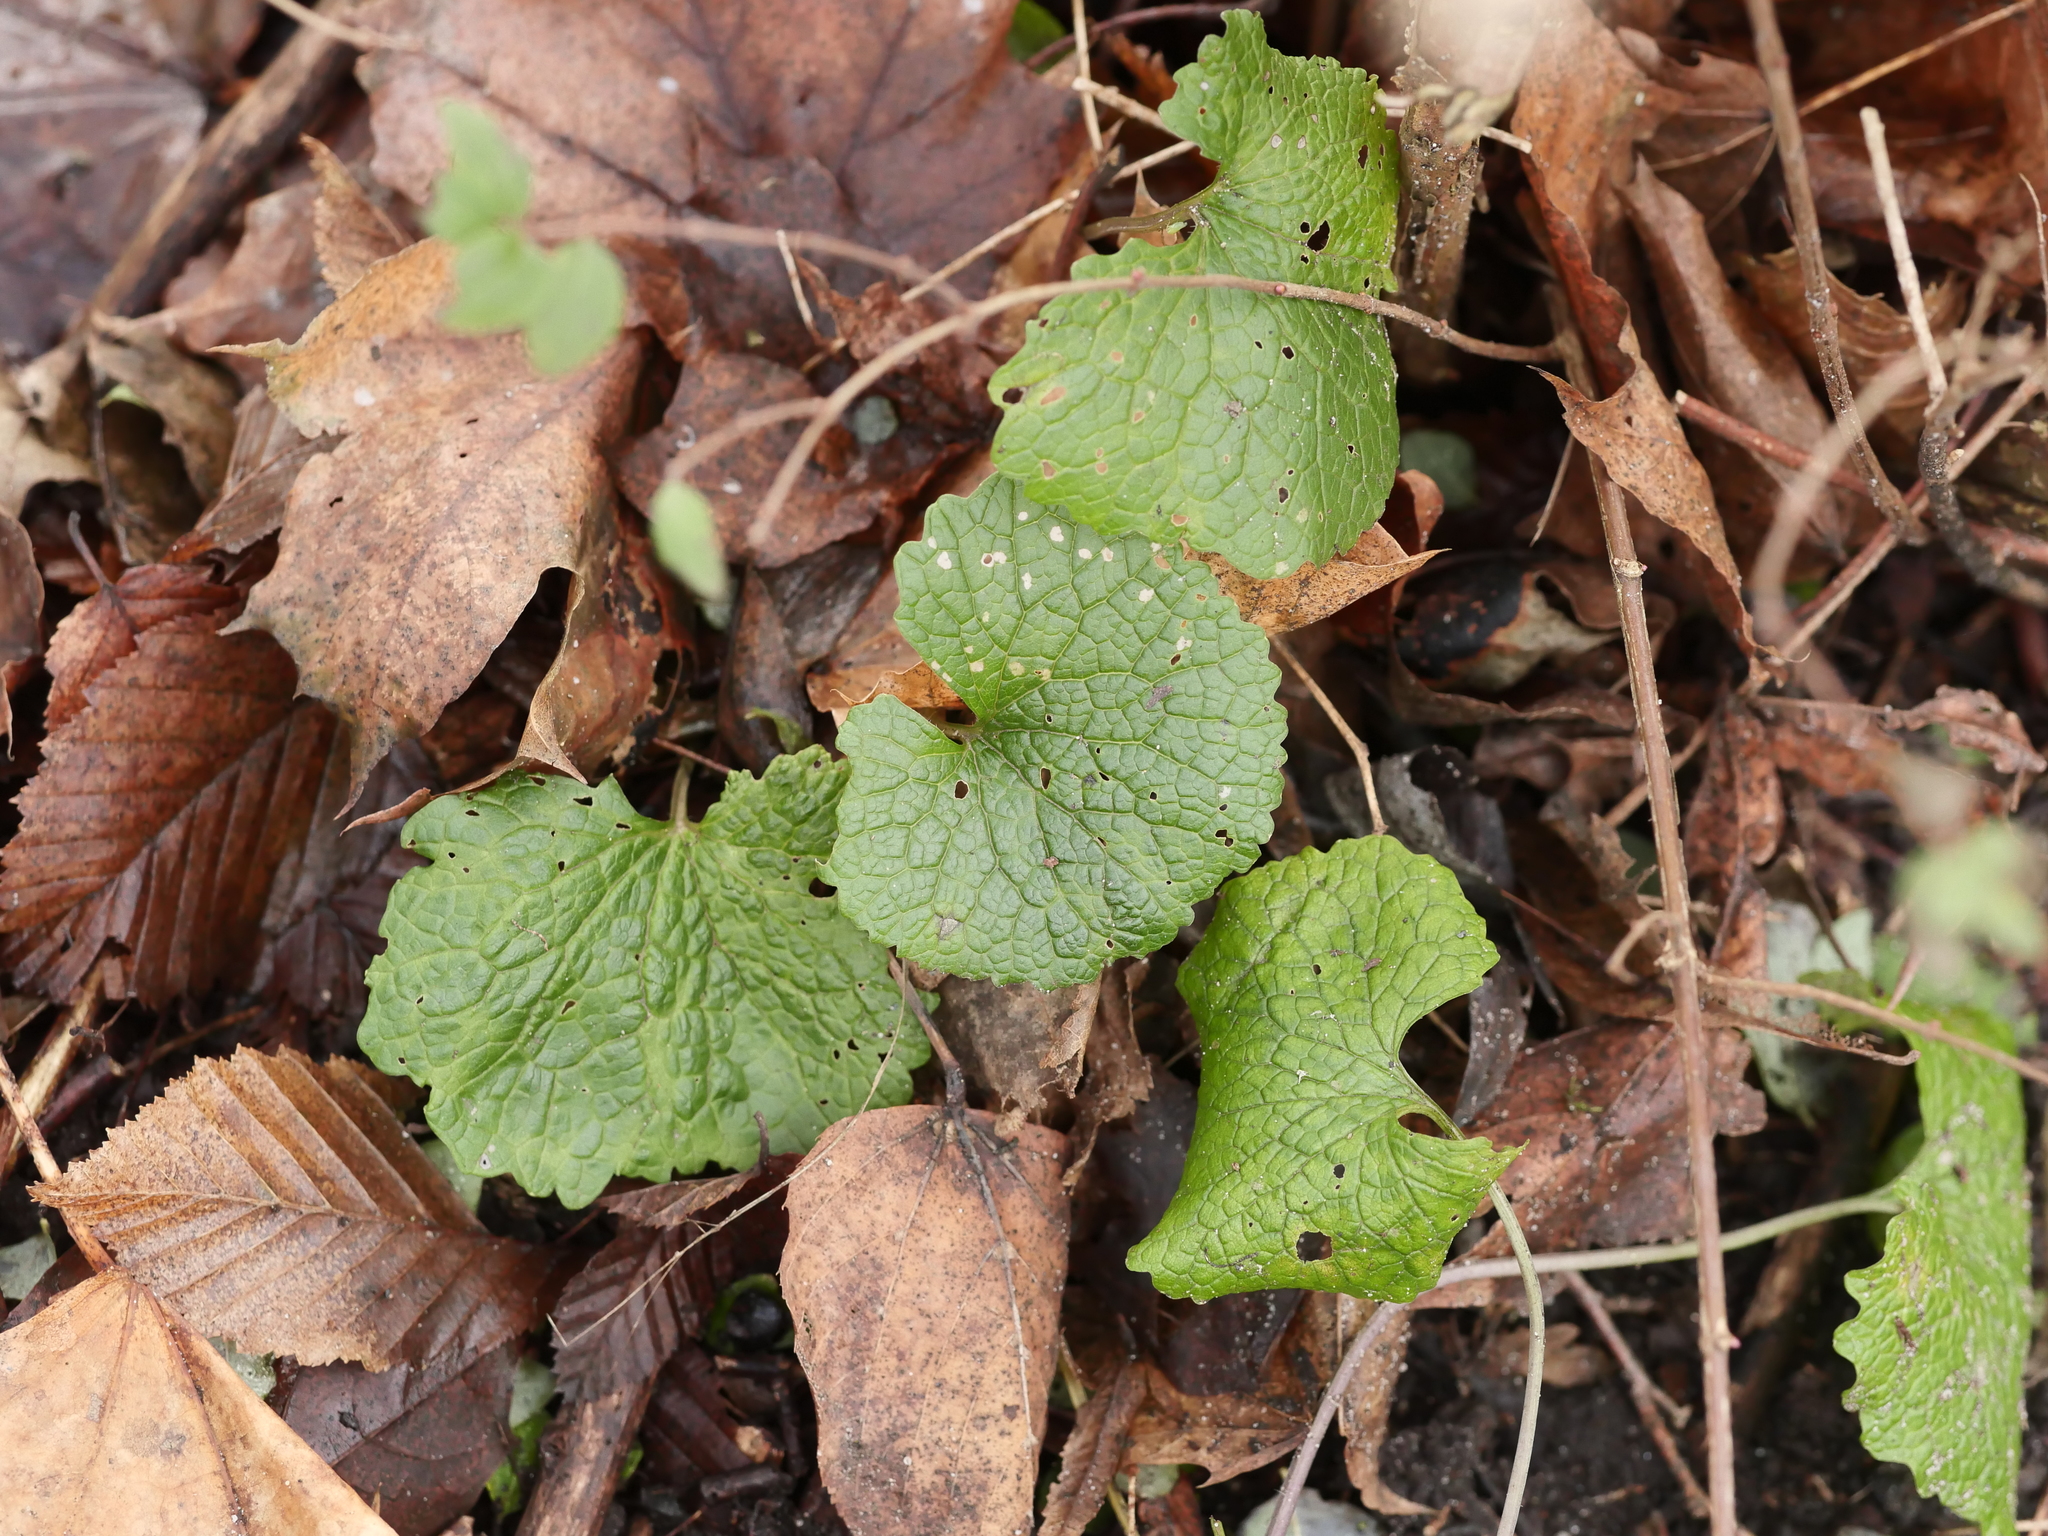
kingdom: Plantae
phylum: Tracheophyta
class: Magnoliopsida
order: Brassicales
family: Brassicaceae
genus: Alliaria
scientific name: Alliaria petiolata
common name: Garlic mustard
